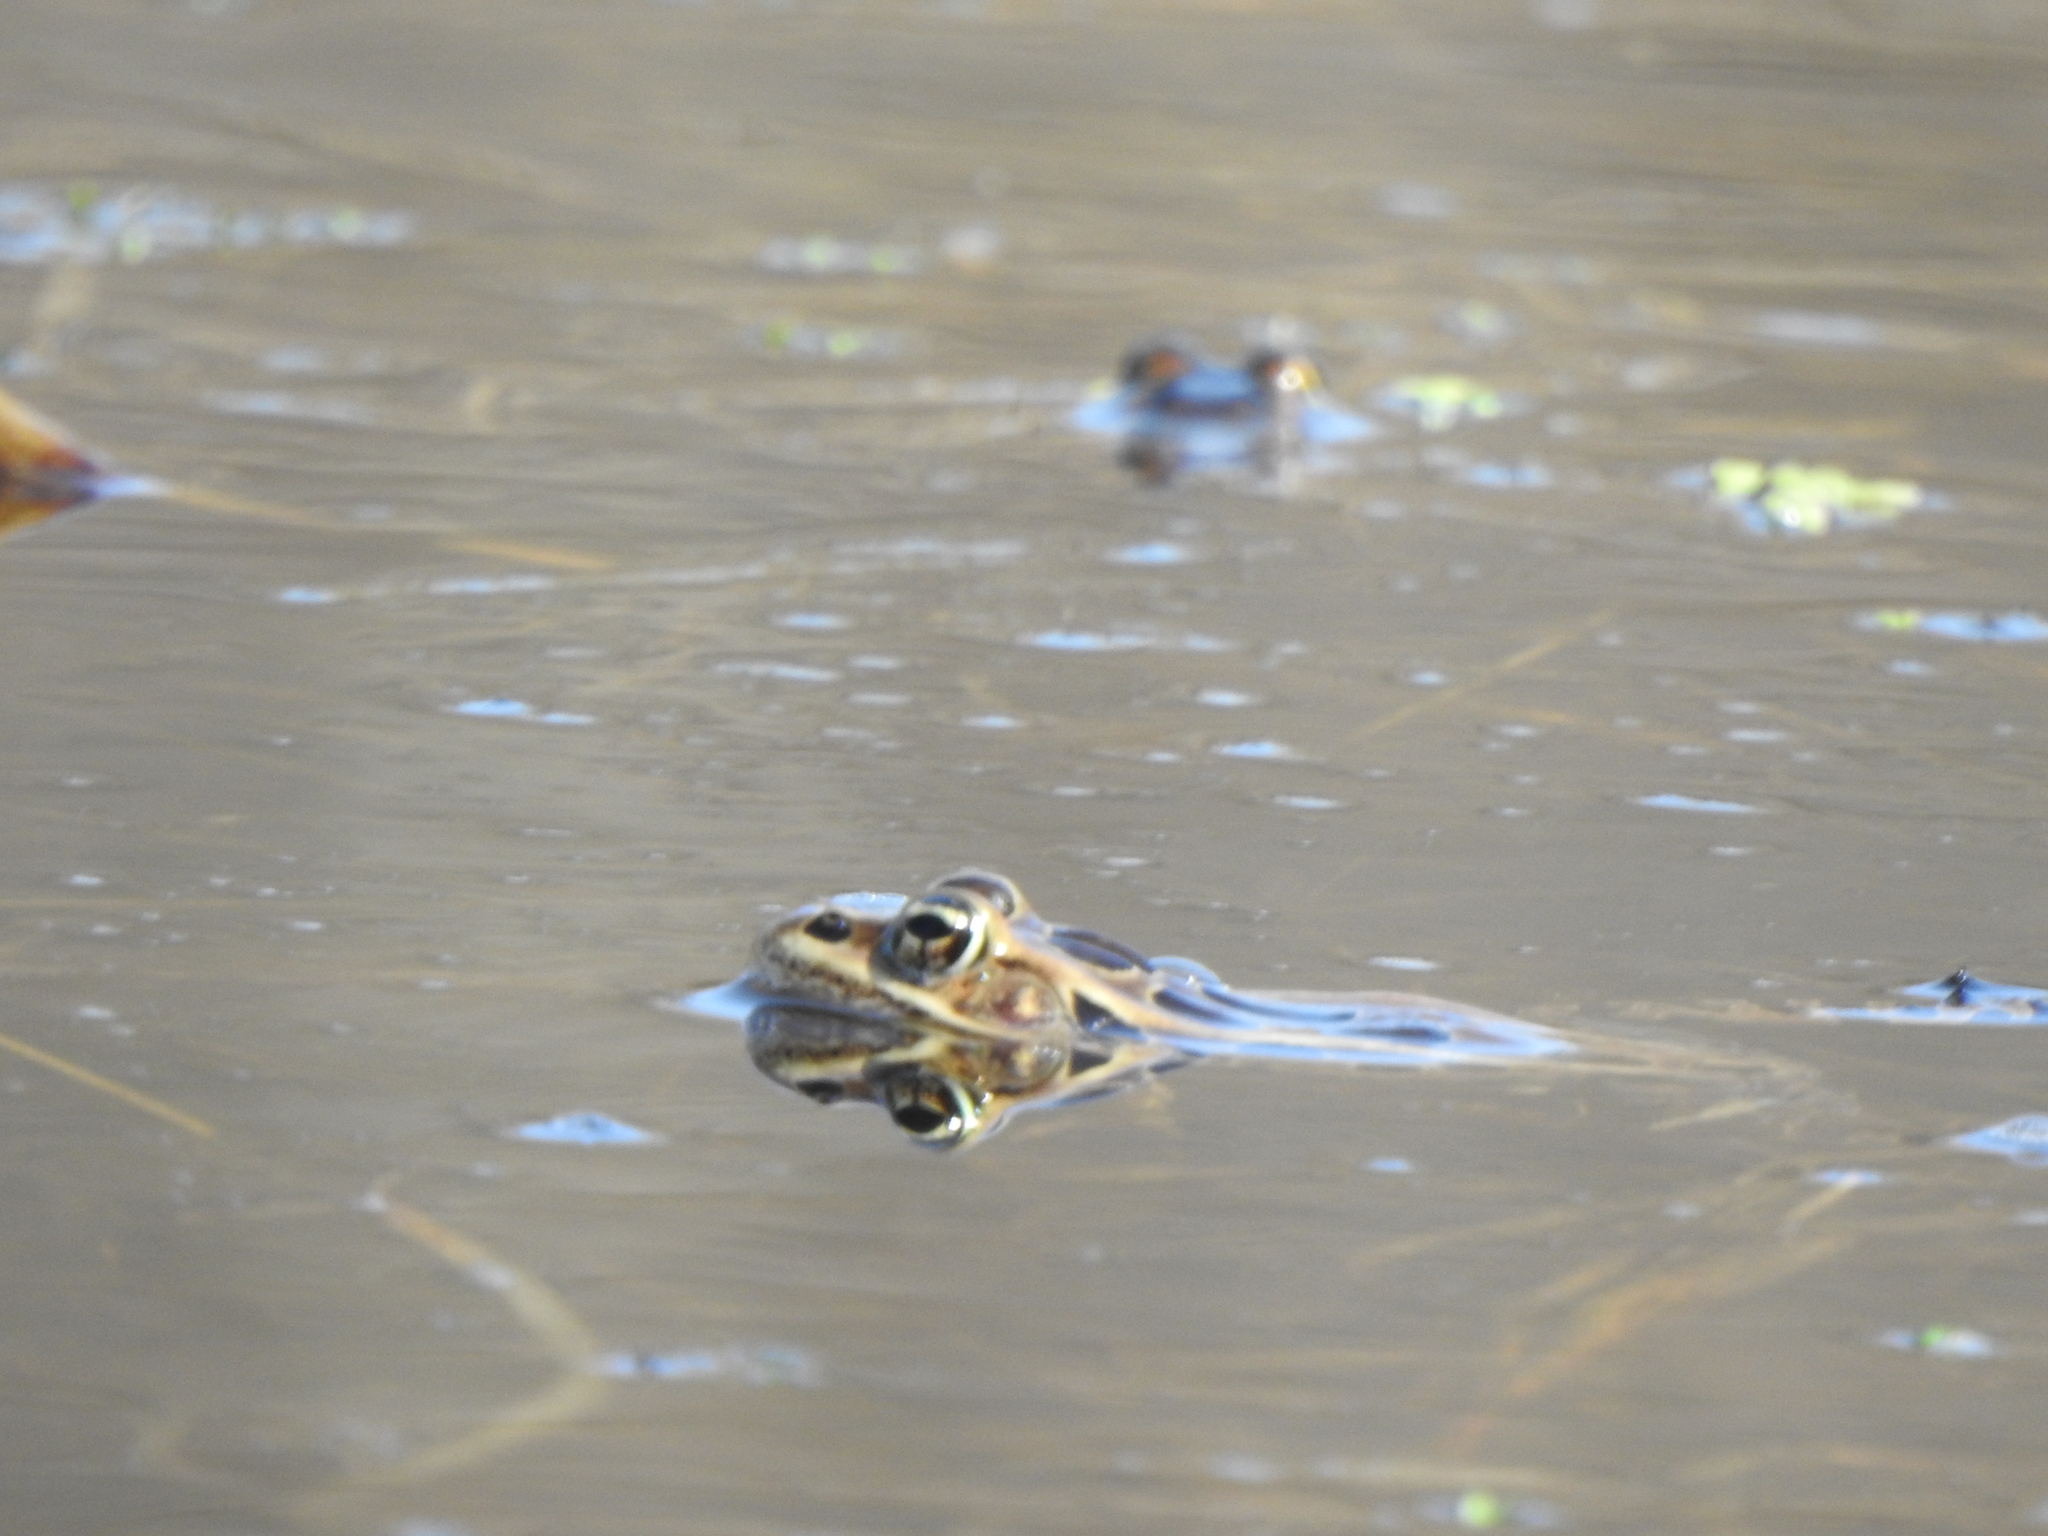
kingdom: Animalia
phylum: Chordata
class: Amphibia
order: Anura
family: Ranidae
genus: Lithobates
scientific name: Lithobates pipiens
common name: Northern leopard frog
